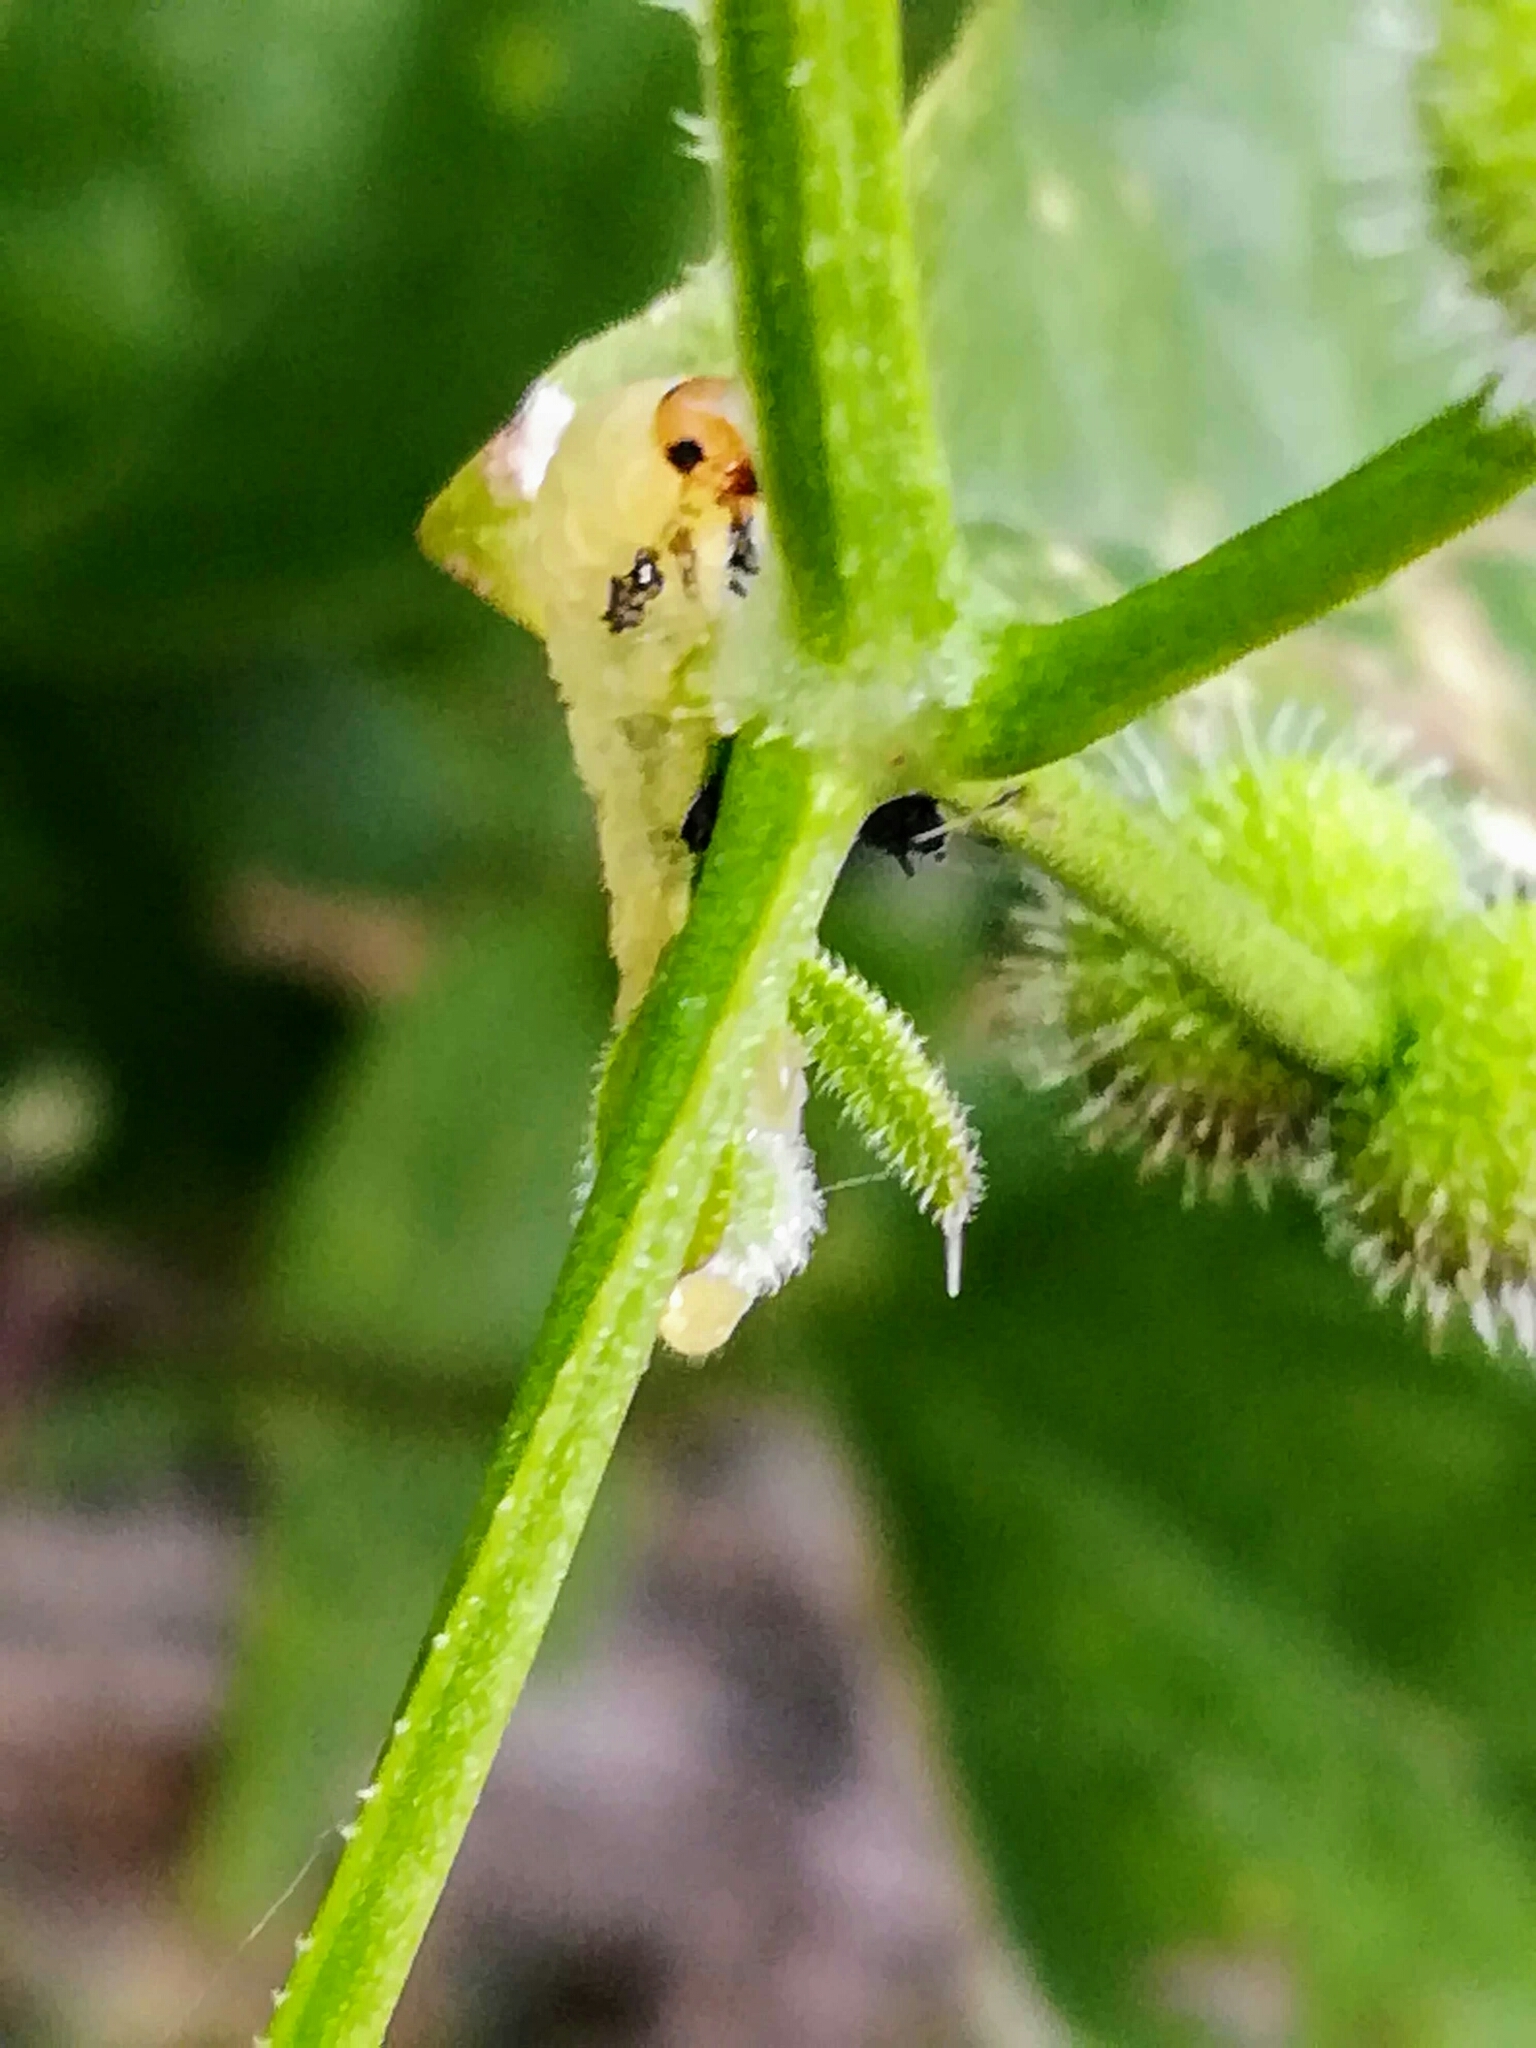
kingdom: Animalia
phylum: Arthropoda
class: Insecta
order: Hymenoptera
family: Tenthredinidae
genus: Halidamia
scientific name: Halidamia affinis
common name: Wasp
